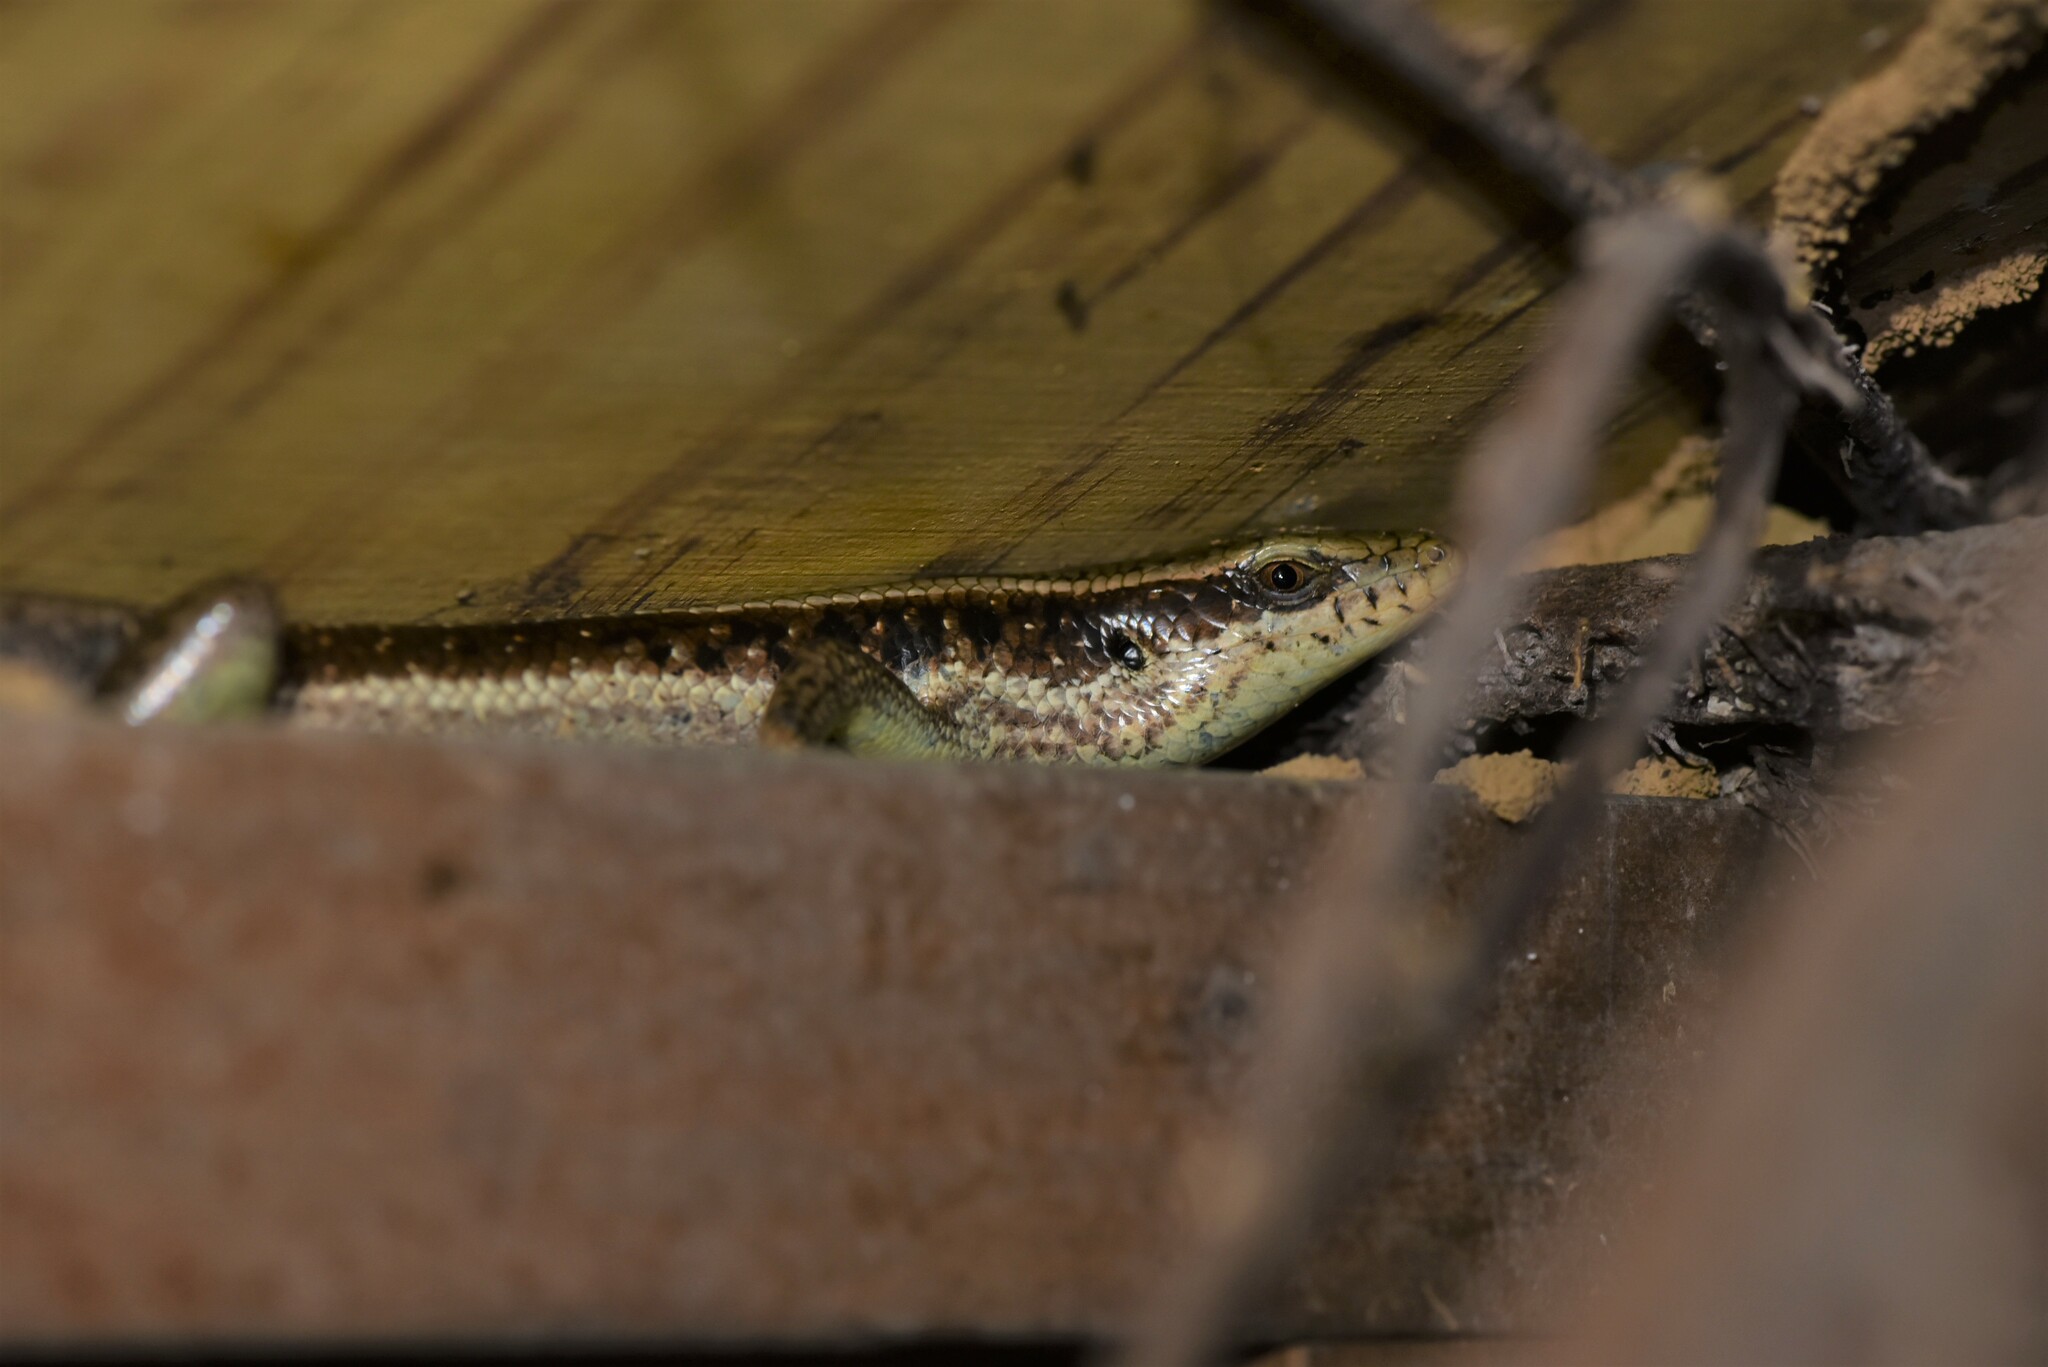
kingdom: Animalia
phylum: Chordata
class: Squamata
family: Scincidae
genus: Eutropis
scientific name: Eutropis longicaudata
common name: Long-tailed sun skink
